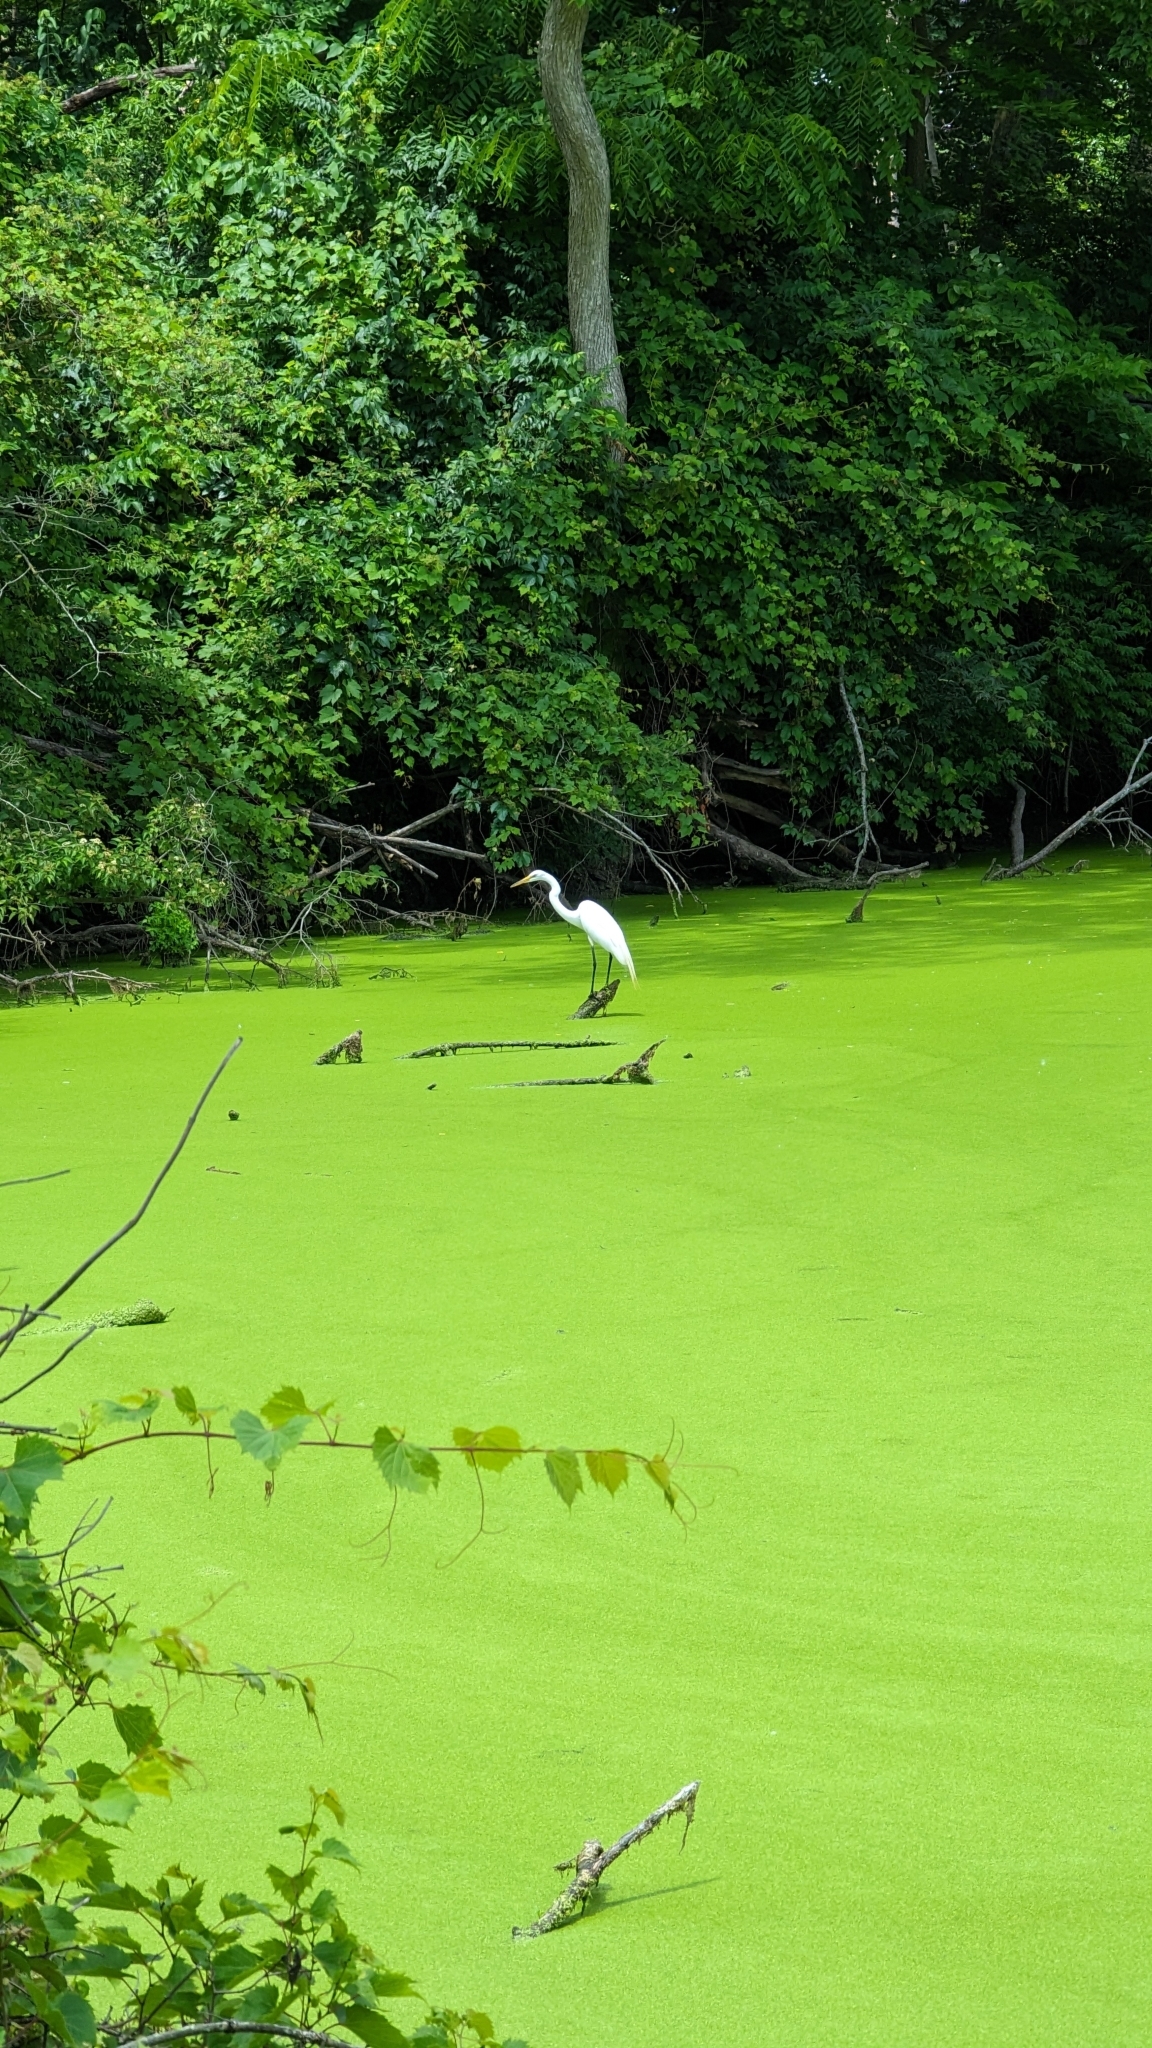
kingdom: Animalia
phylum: Chordata
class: Aves
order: Pelecaniformes
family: Ardeidae
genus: Ardea
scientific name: Ardea alba
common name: Great egret
